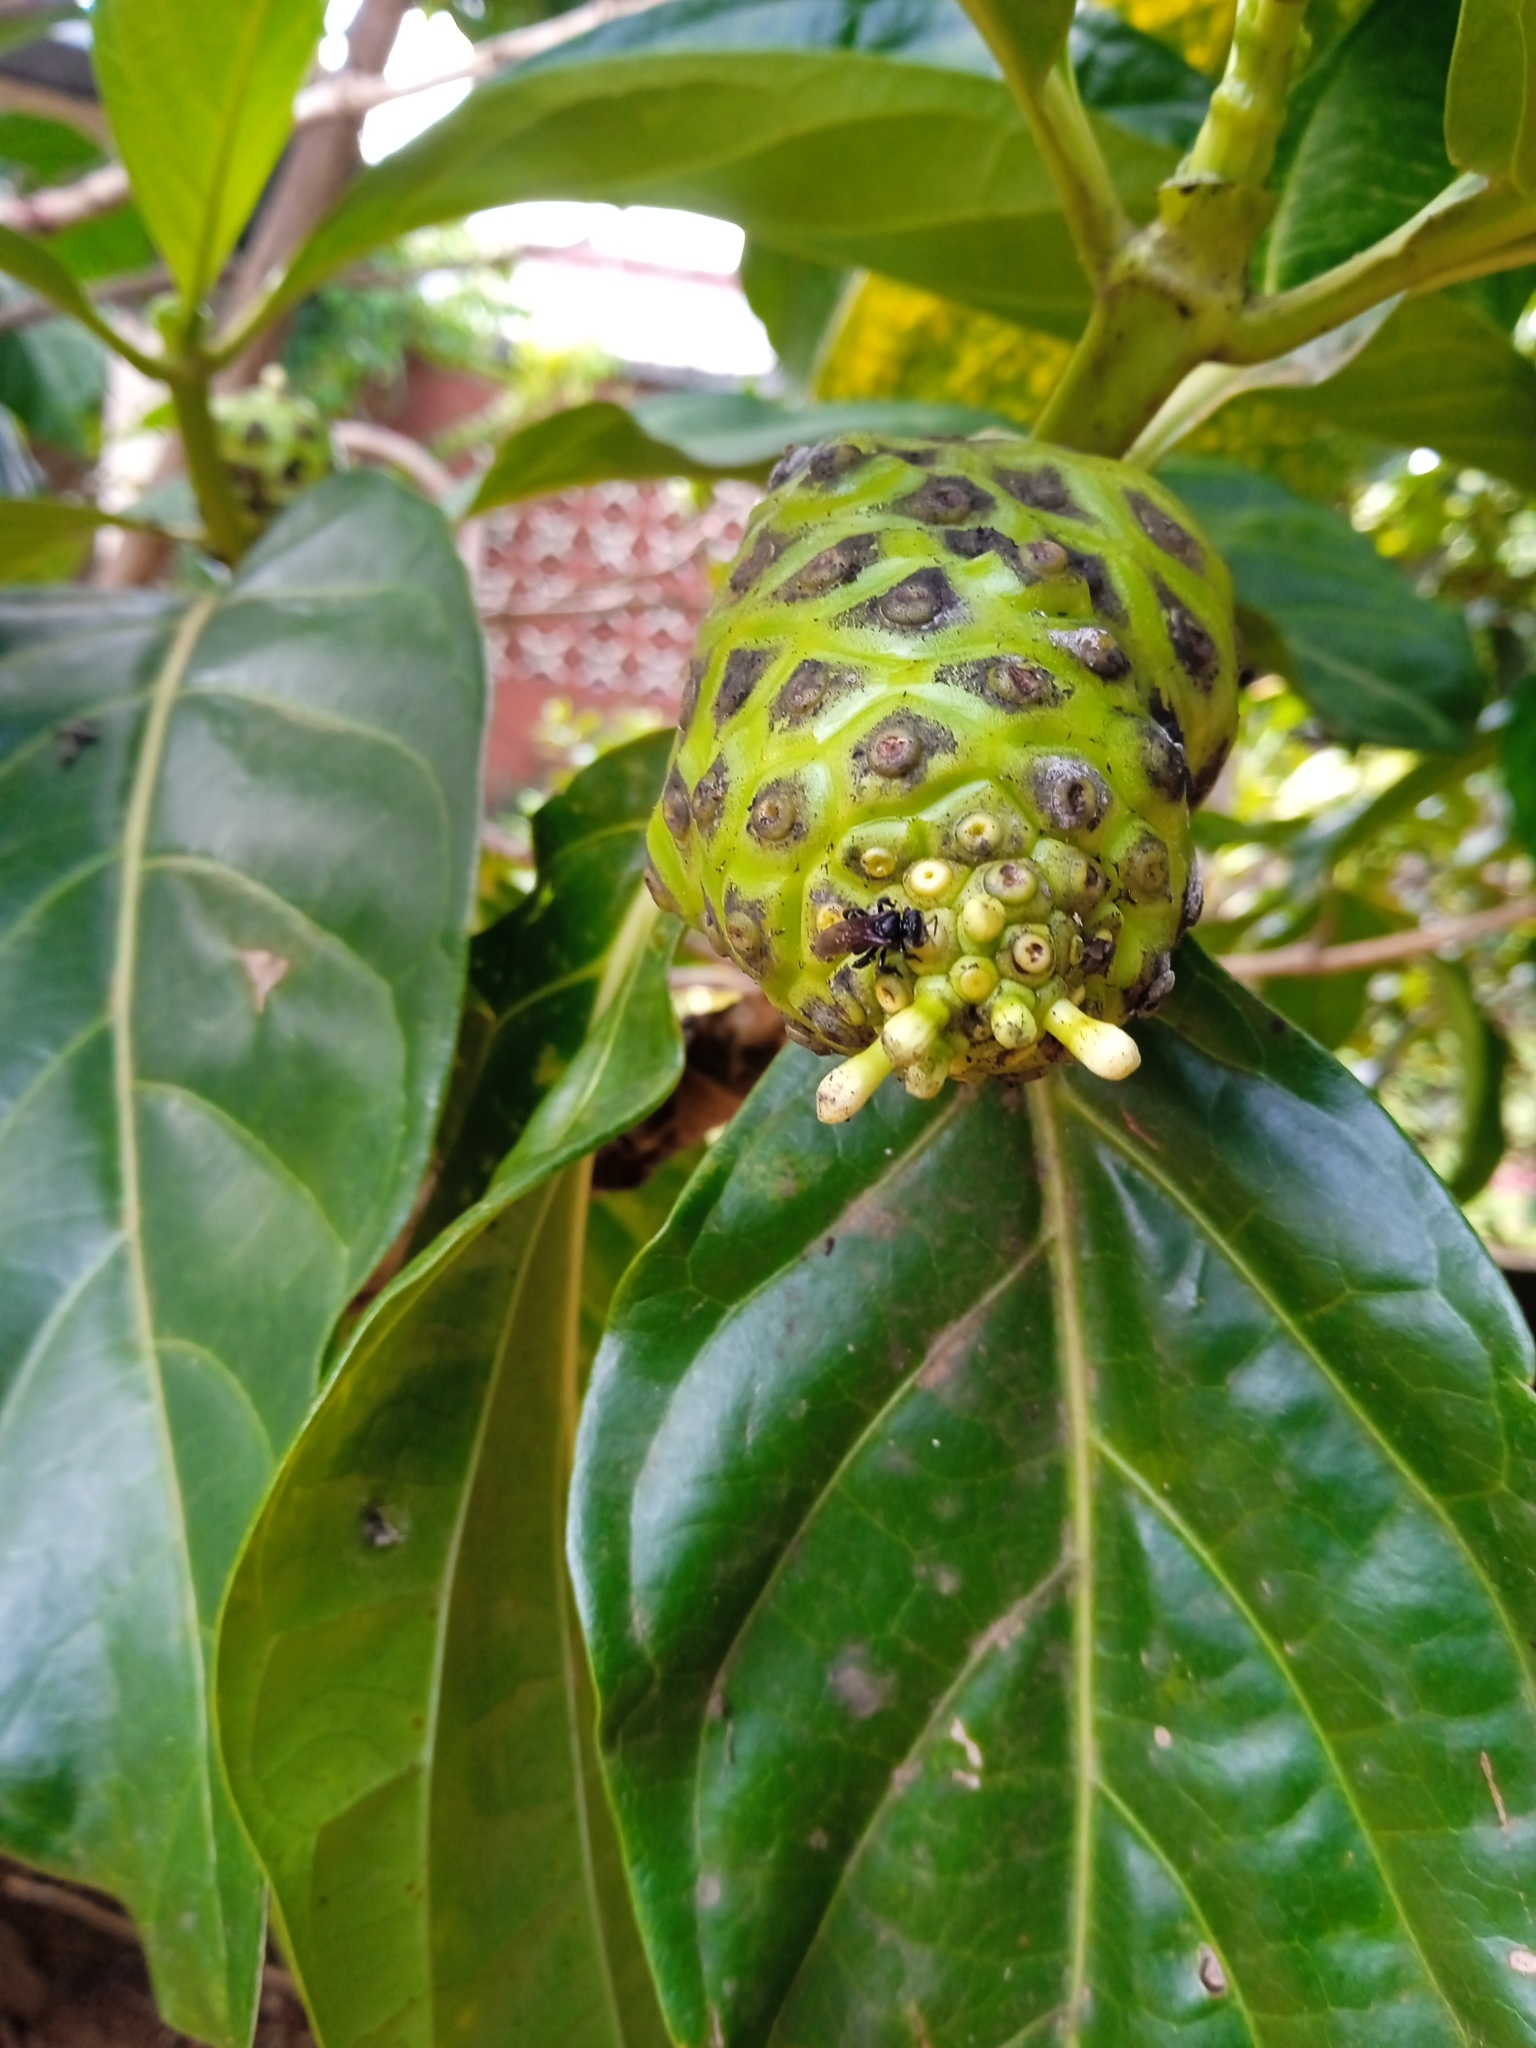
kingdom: Plantae
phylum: Tracheophyta
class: Magnoliopsida
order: Gentianales
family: Rubiaceae
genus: Morinda
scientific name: Morinda citrifolia
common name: Indian-mulberry
